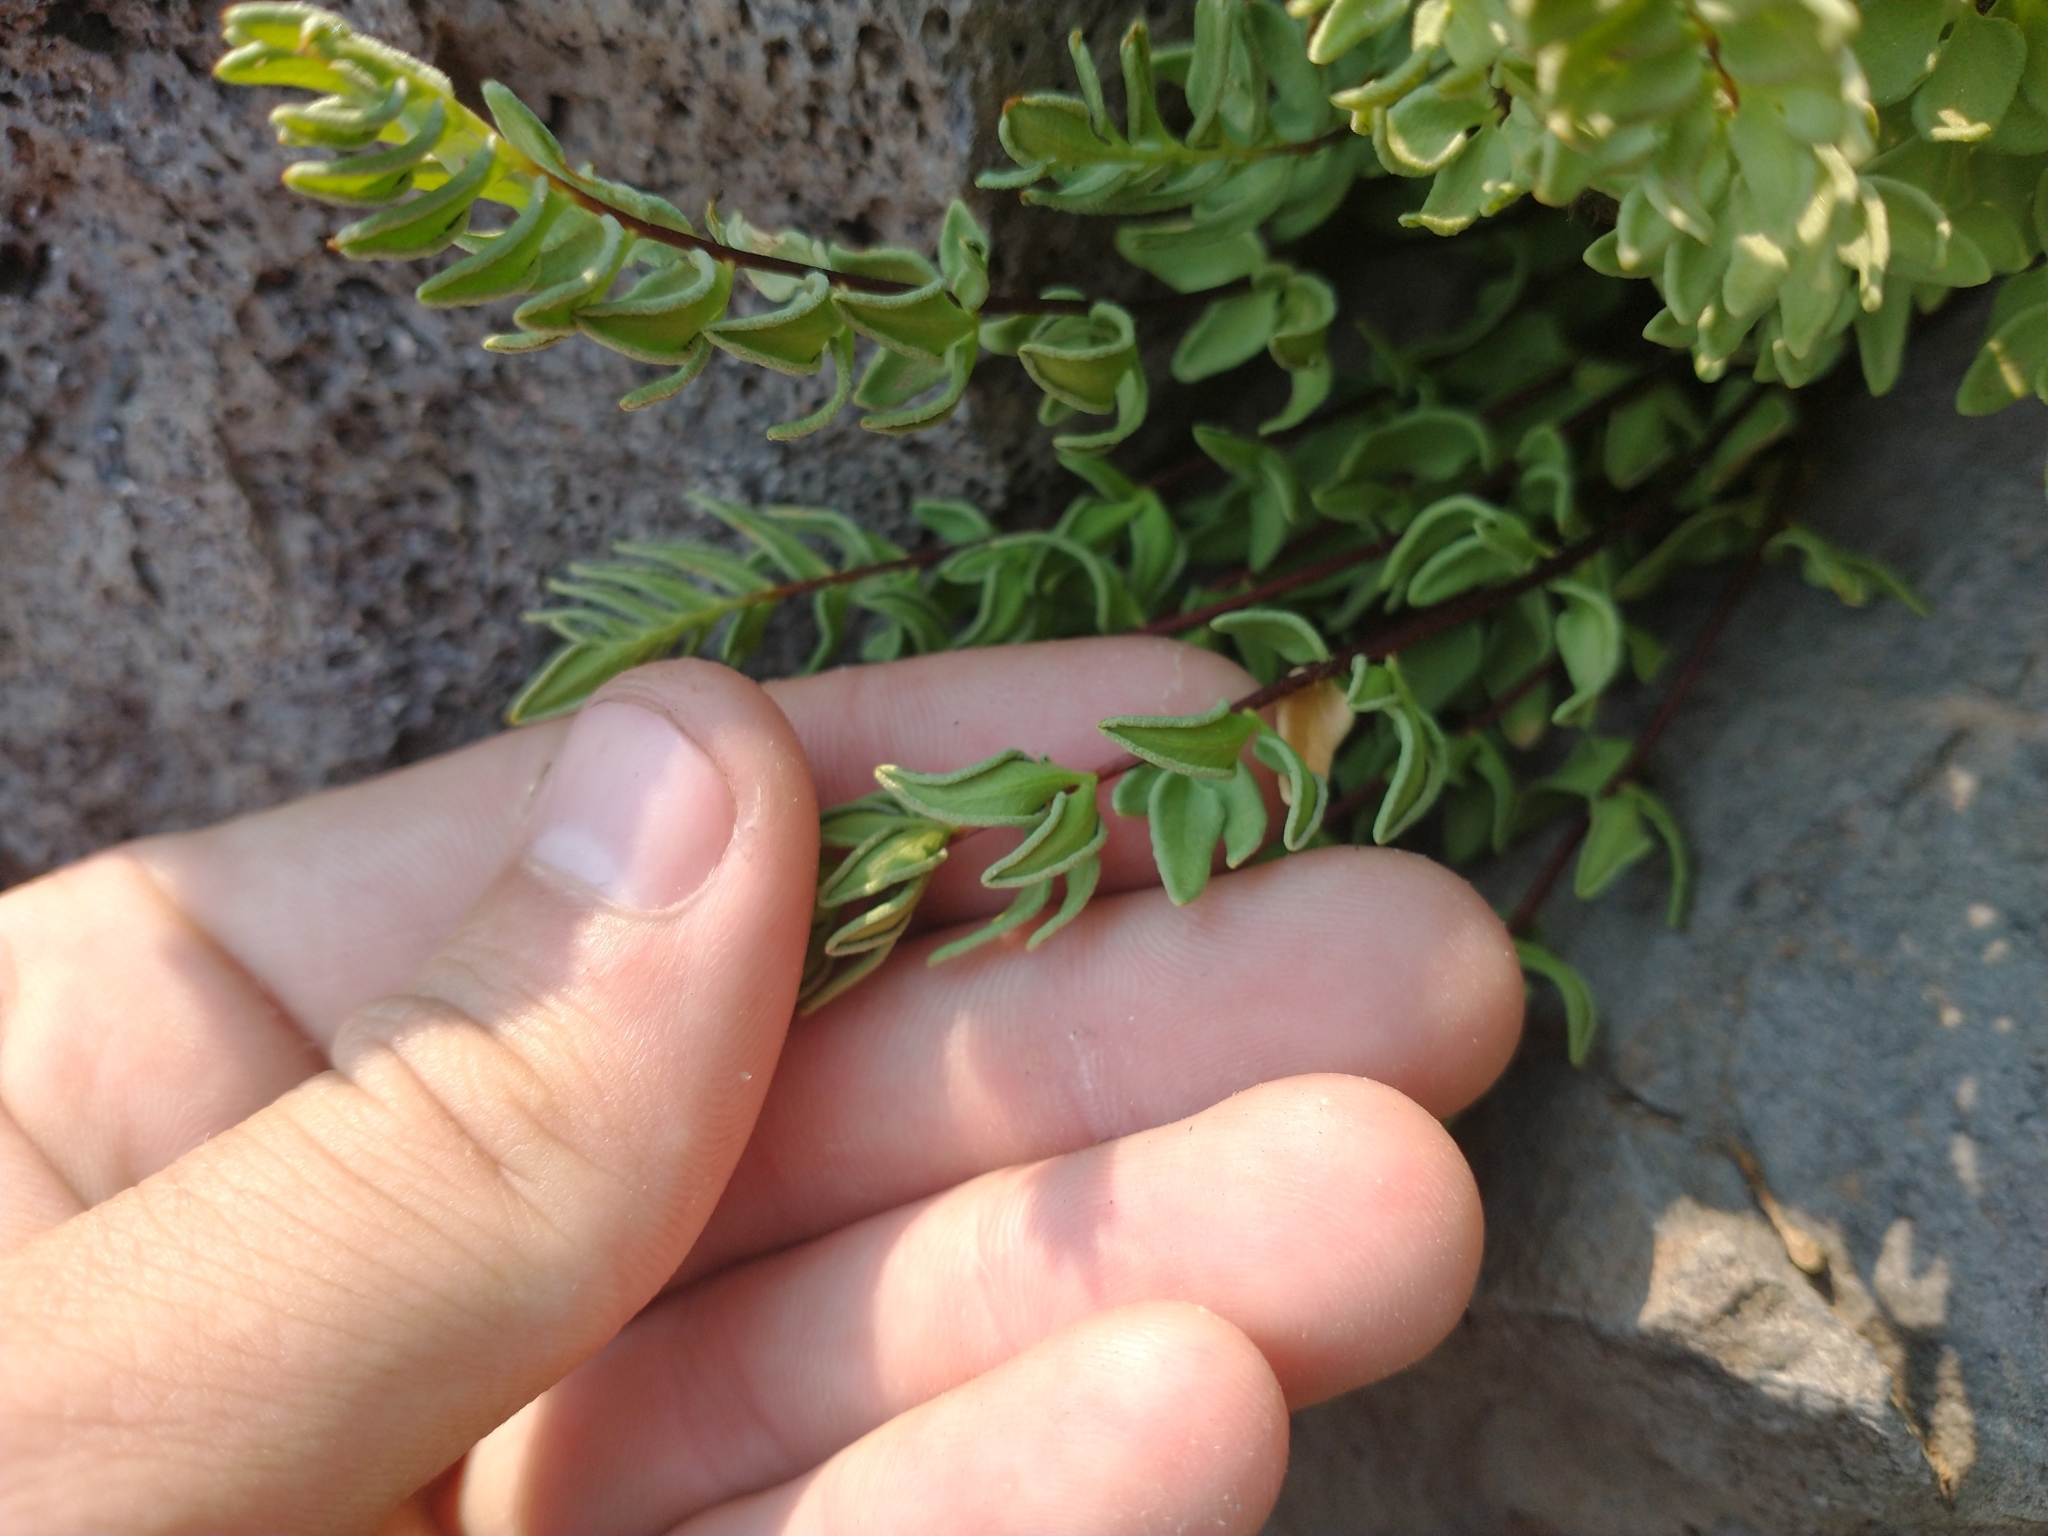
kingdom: Plantae
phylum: Tracheophyta
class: Polypodiopsida
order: Polypodiales
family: Pteridaceae
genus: Pellaea
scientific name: Pellaea breweri
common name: Brewer's cliffbrake
